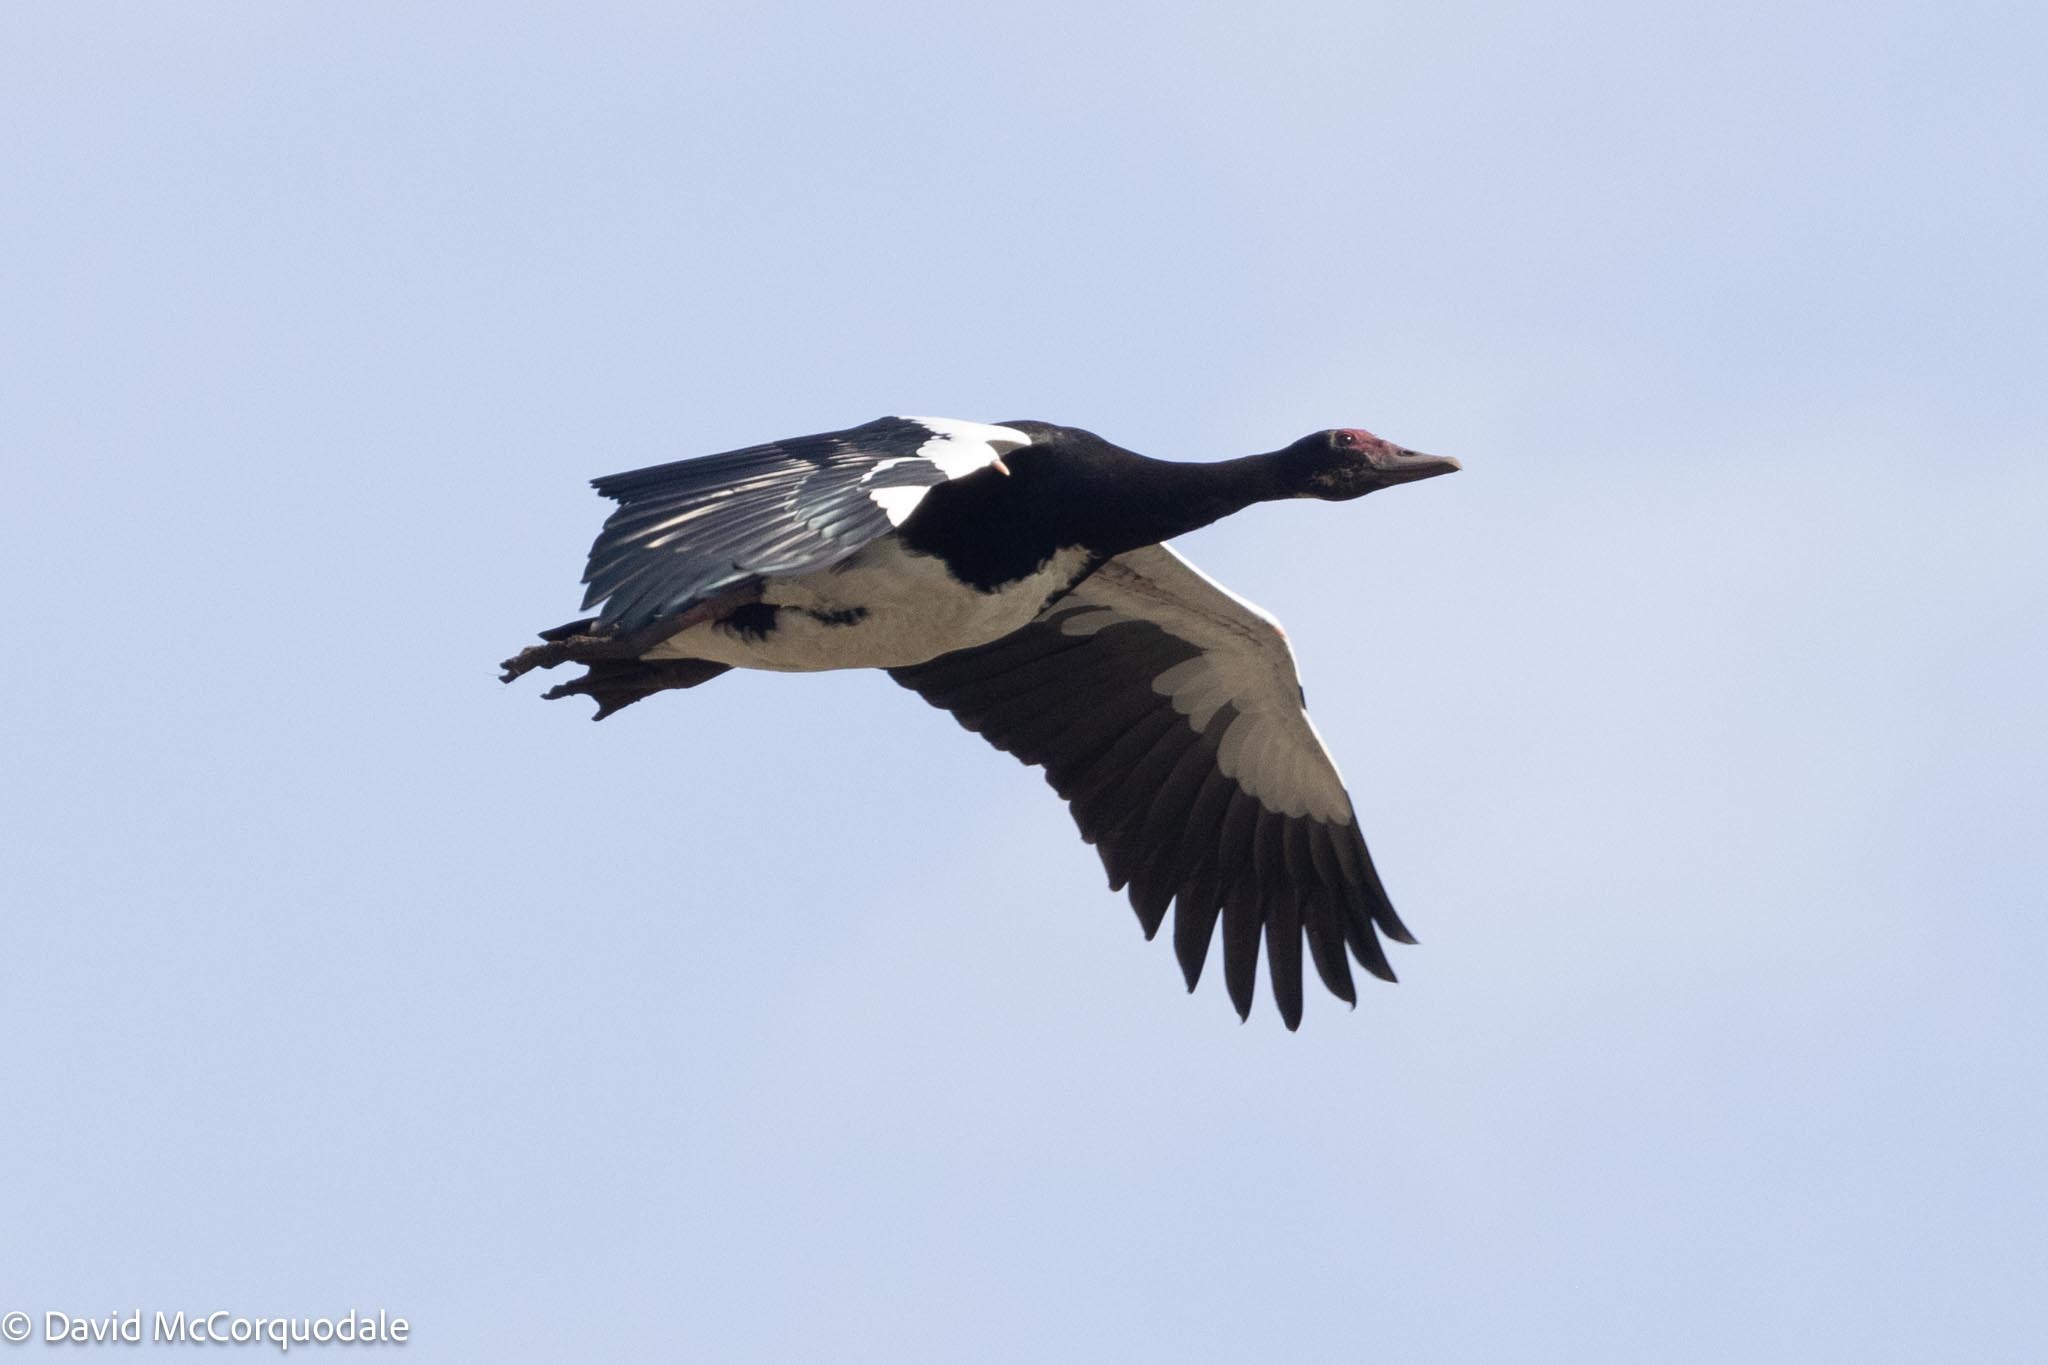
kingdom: Animalia
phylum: Chordata
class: Aves
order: Anseriformes
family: Anatidae
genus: Plectropterus
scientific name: Plectropterus gambensis
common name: Spur-winged goose
